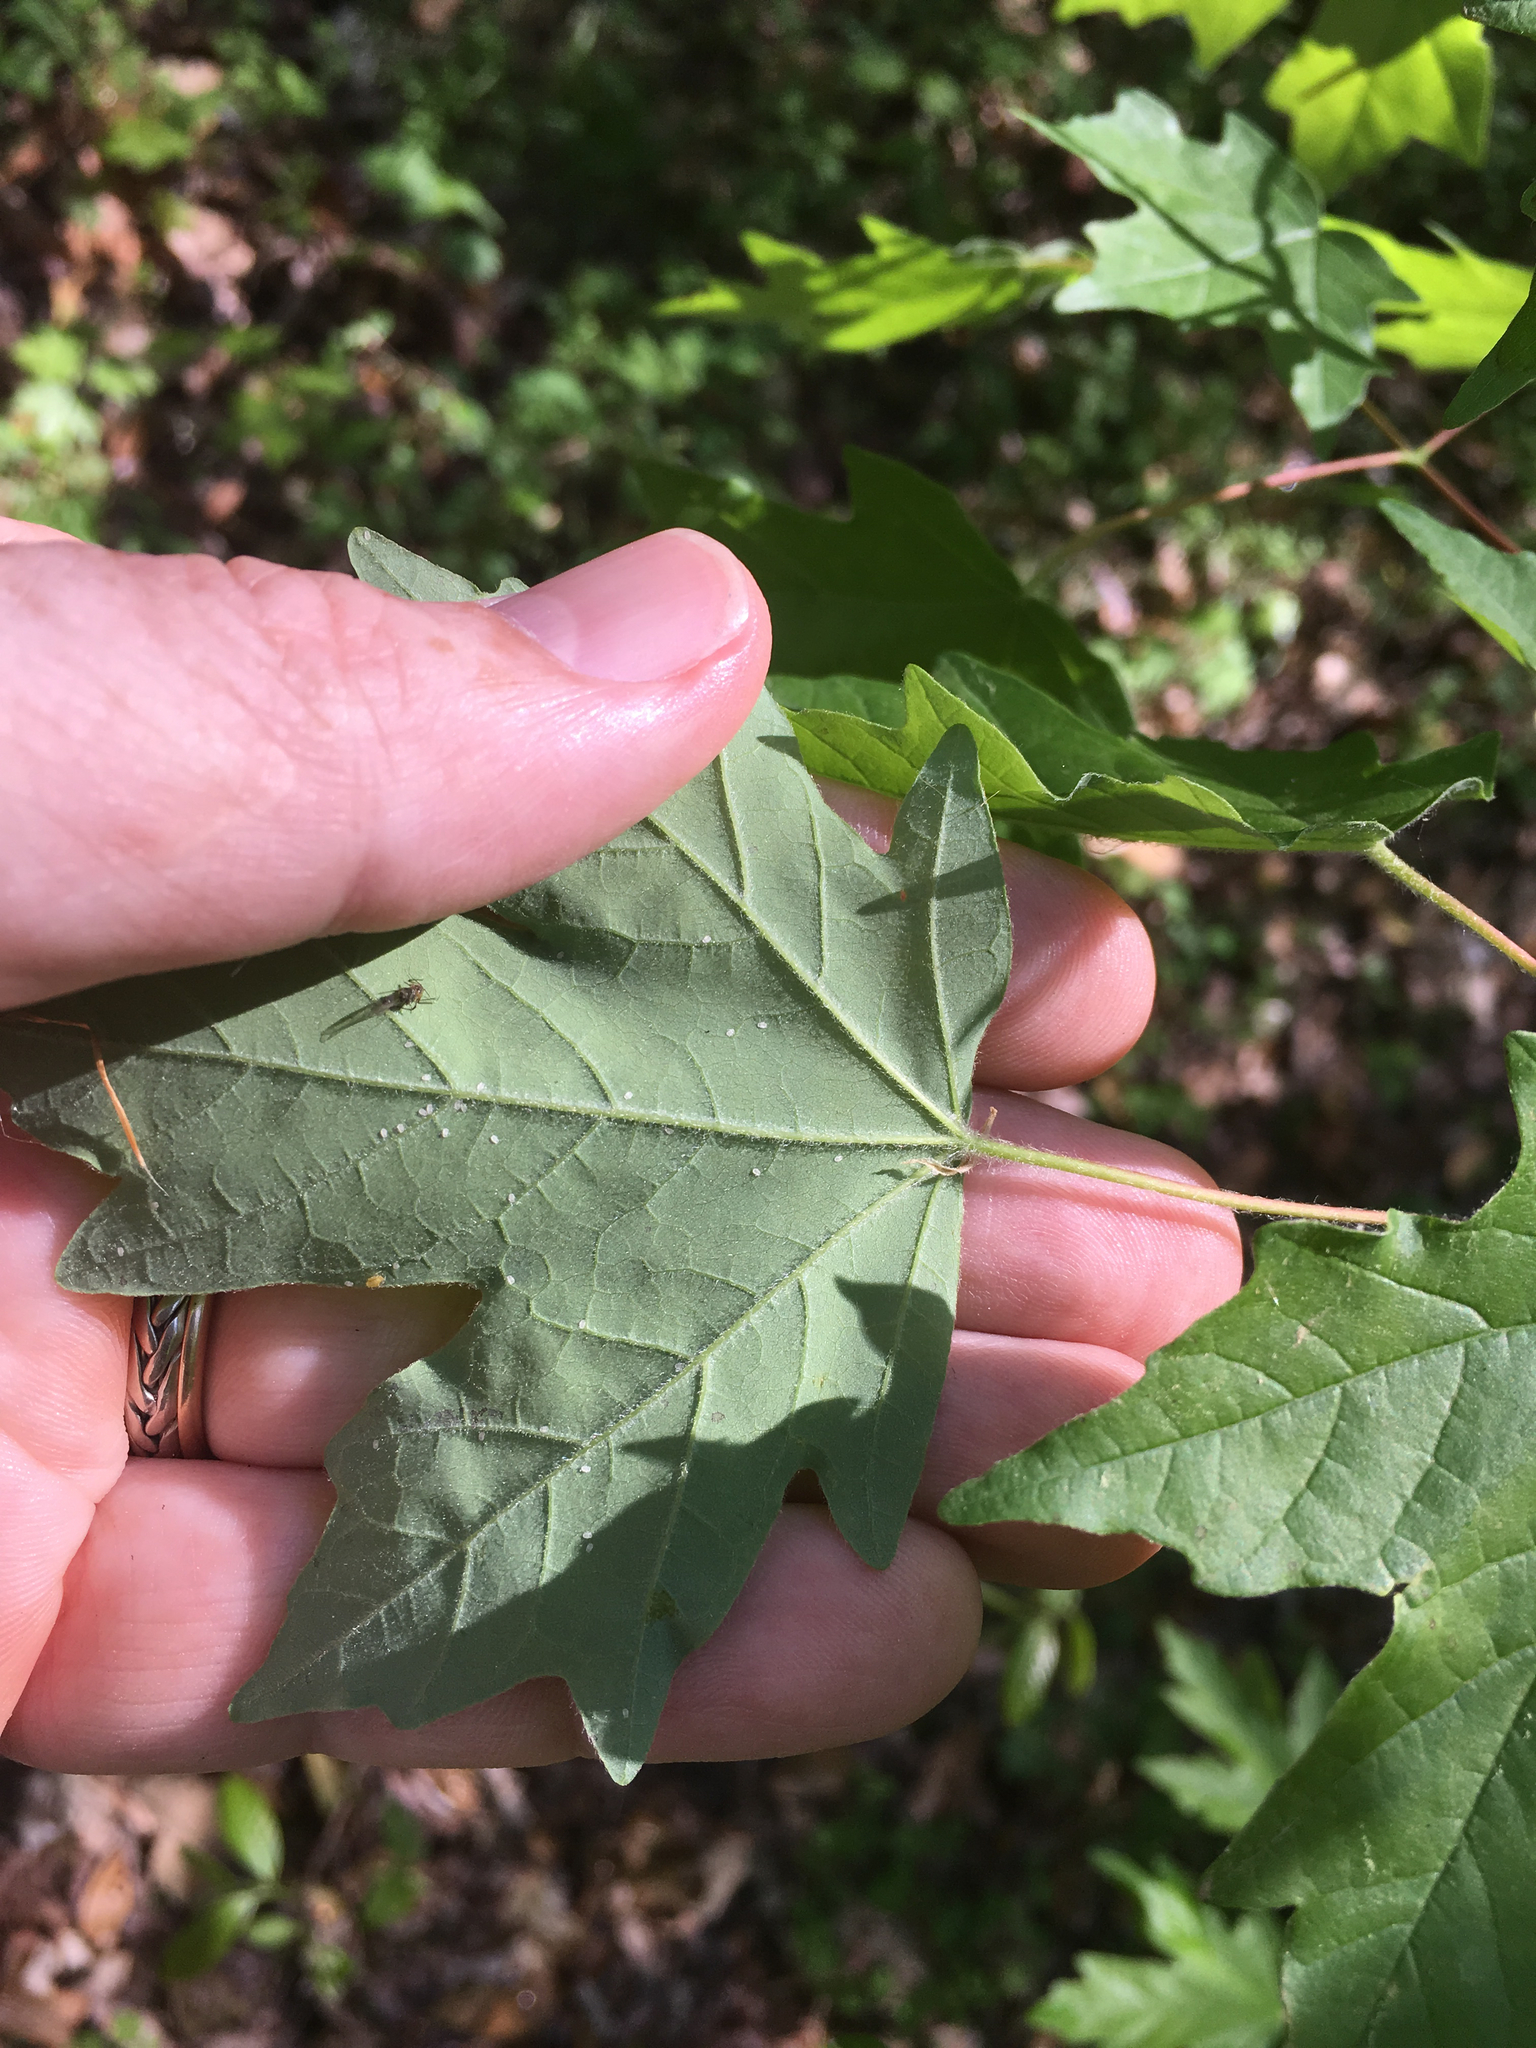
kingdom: Plantae
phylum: Tracheophyta
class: Magnoliopsida
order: Sapindales
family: Sapindaceae
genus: Acer
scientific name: Acer floridanum
